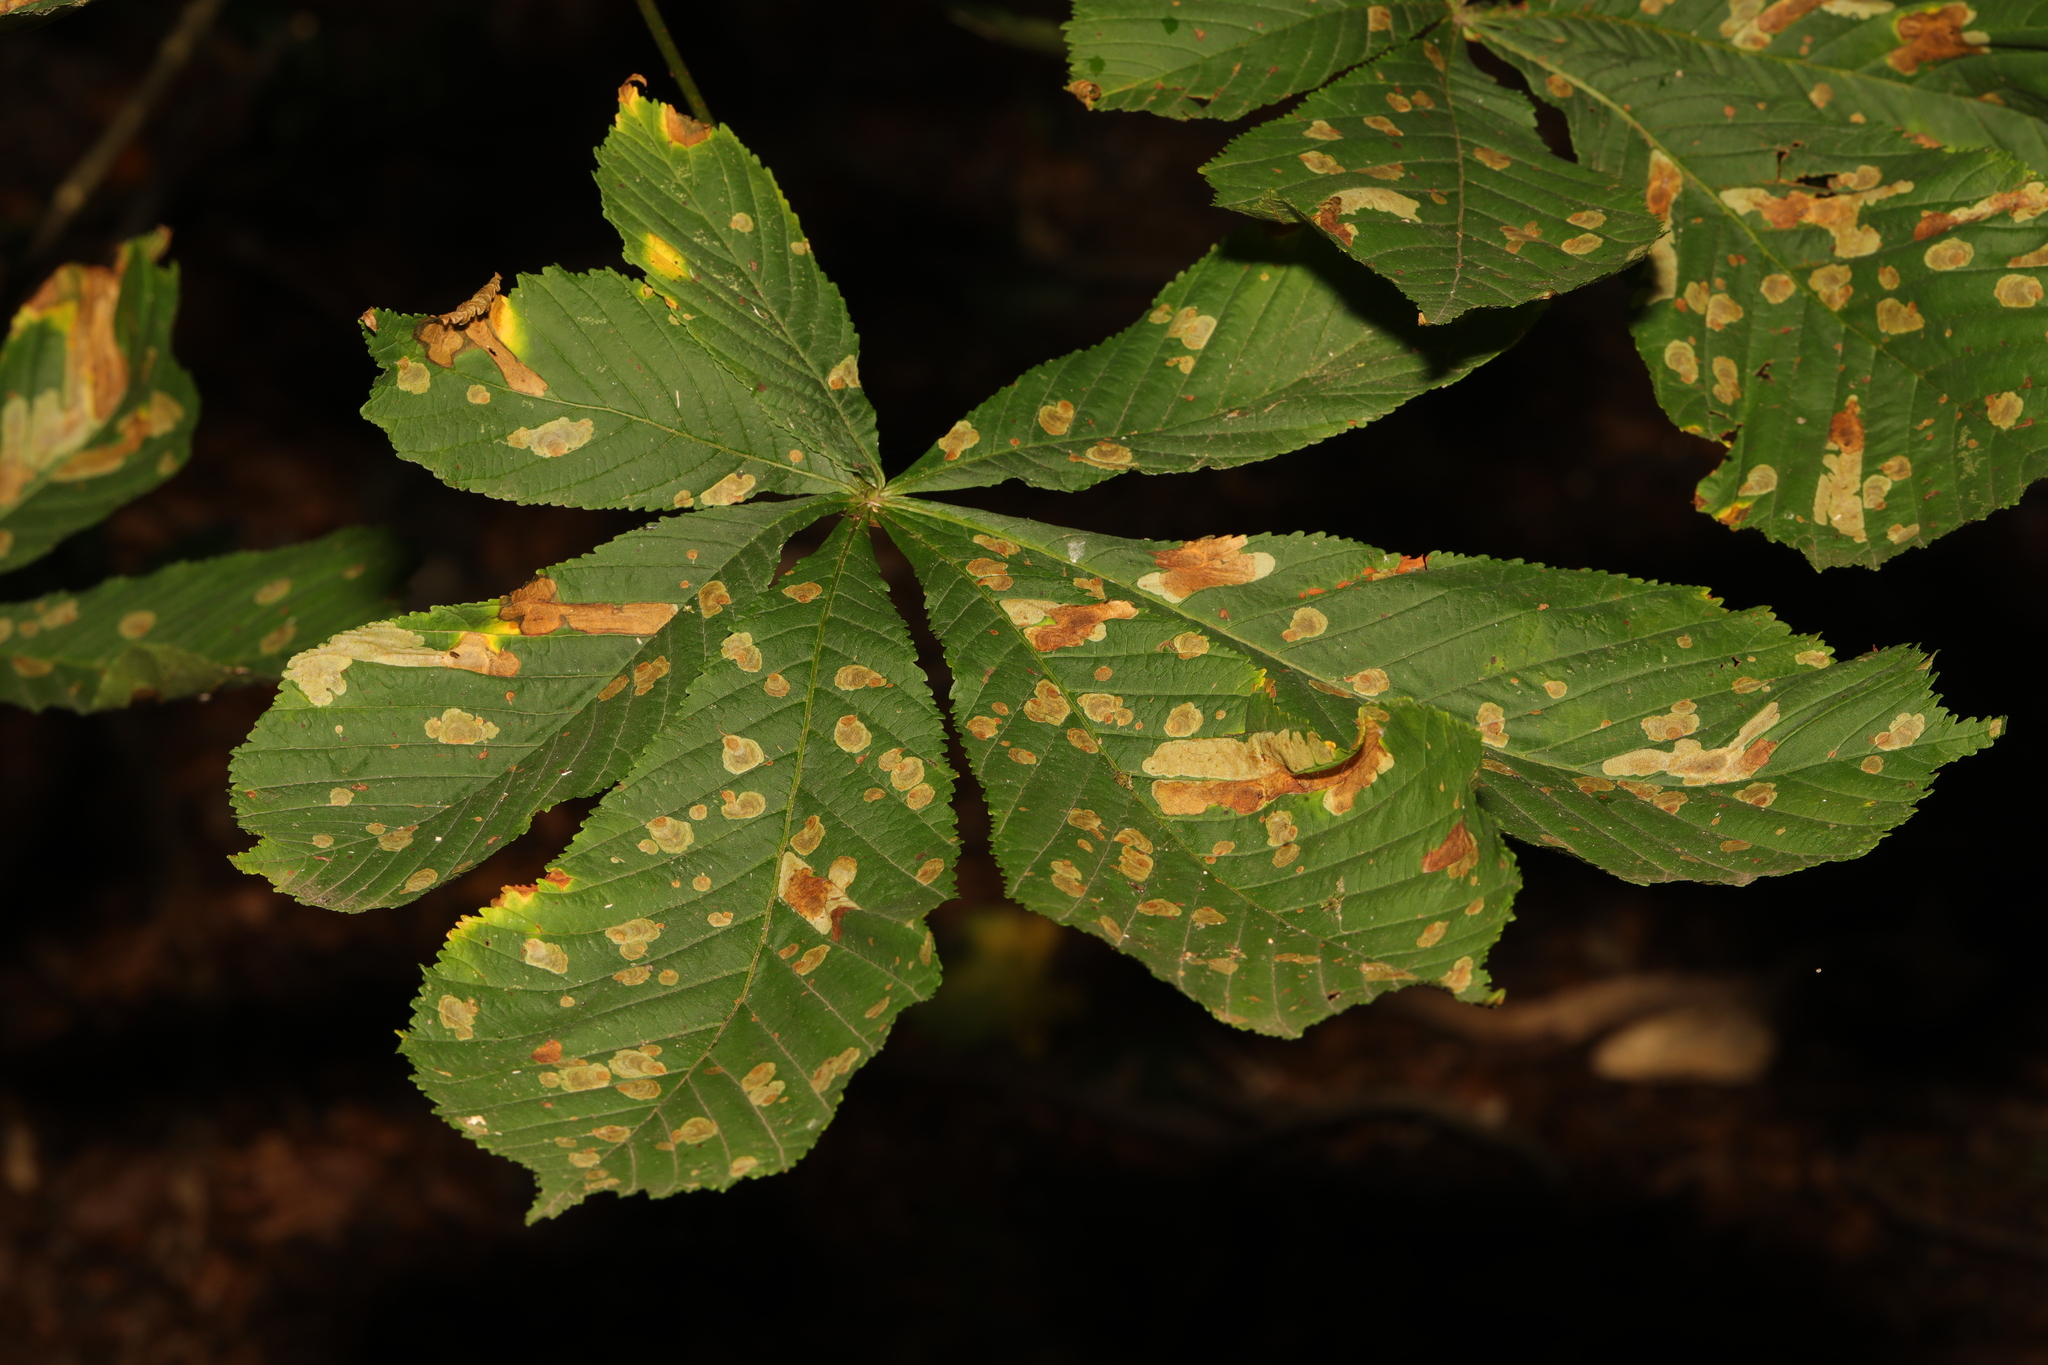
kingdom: Plantae
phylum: Tracheophyta
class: Magnoliopsida
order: Sapindales
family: Sapindaceae
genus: Aesculus
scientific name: Aesculus hippocastanum
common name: Horse-chestnut
